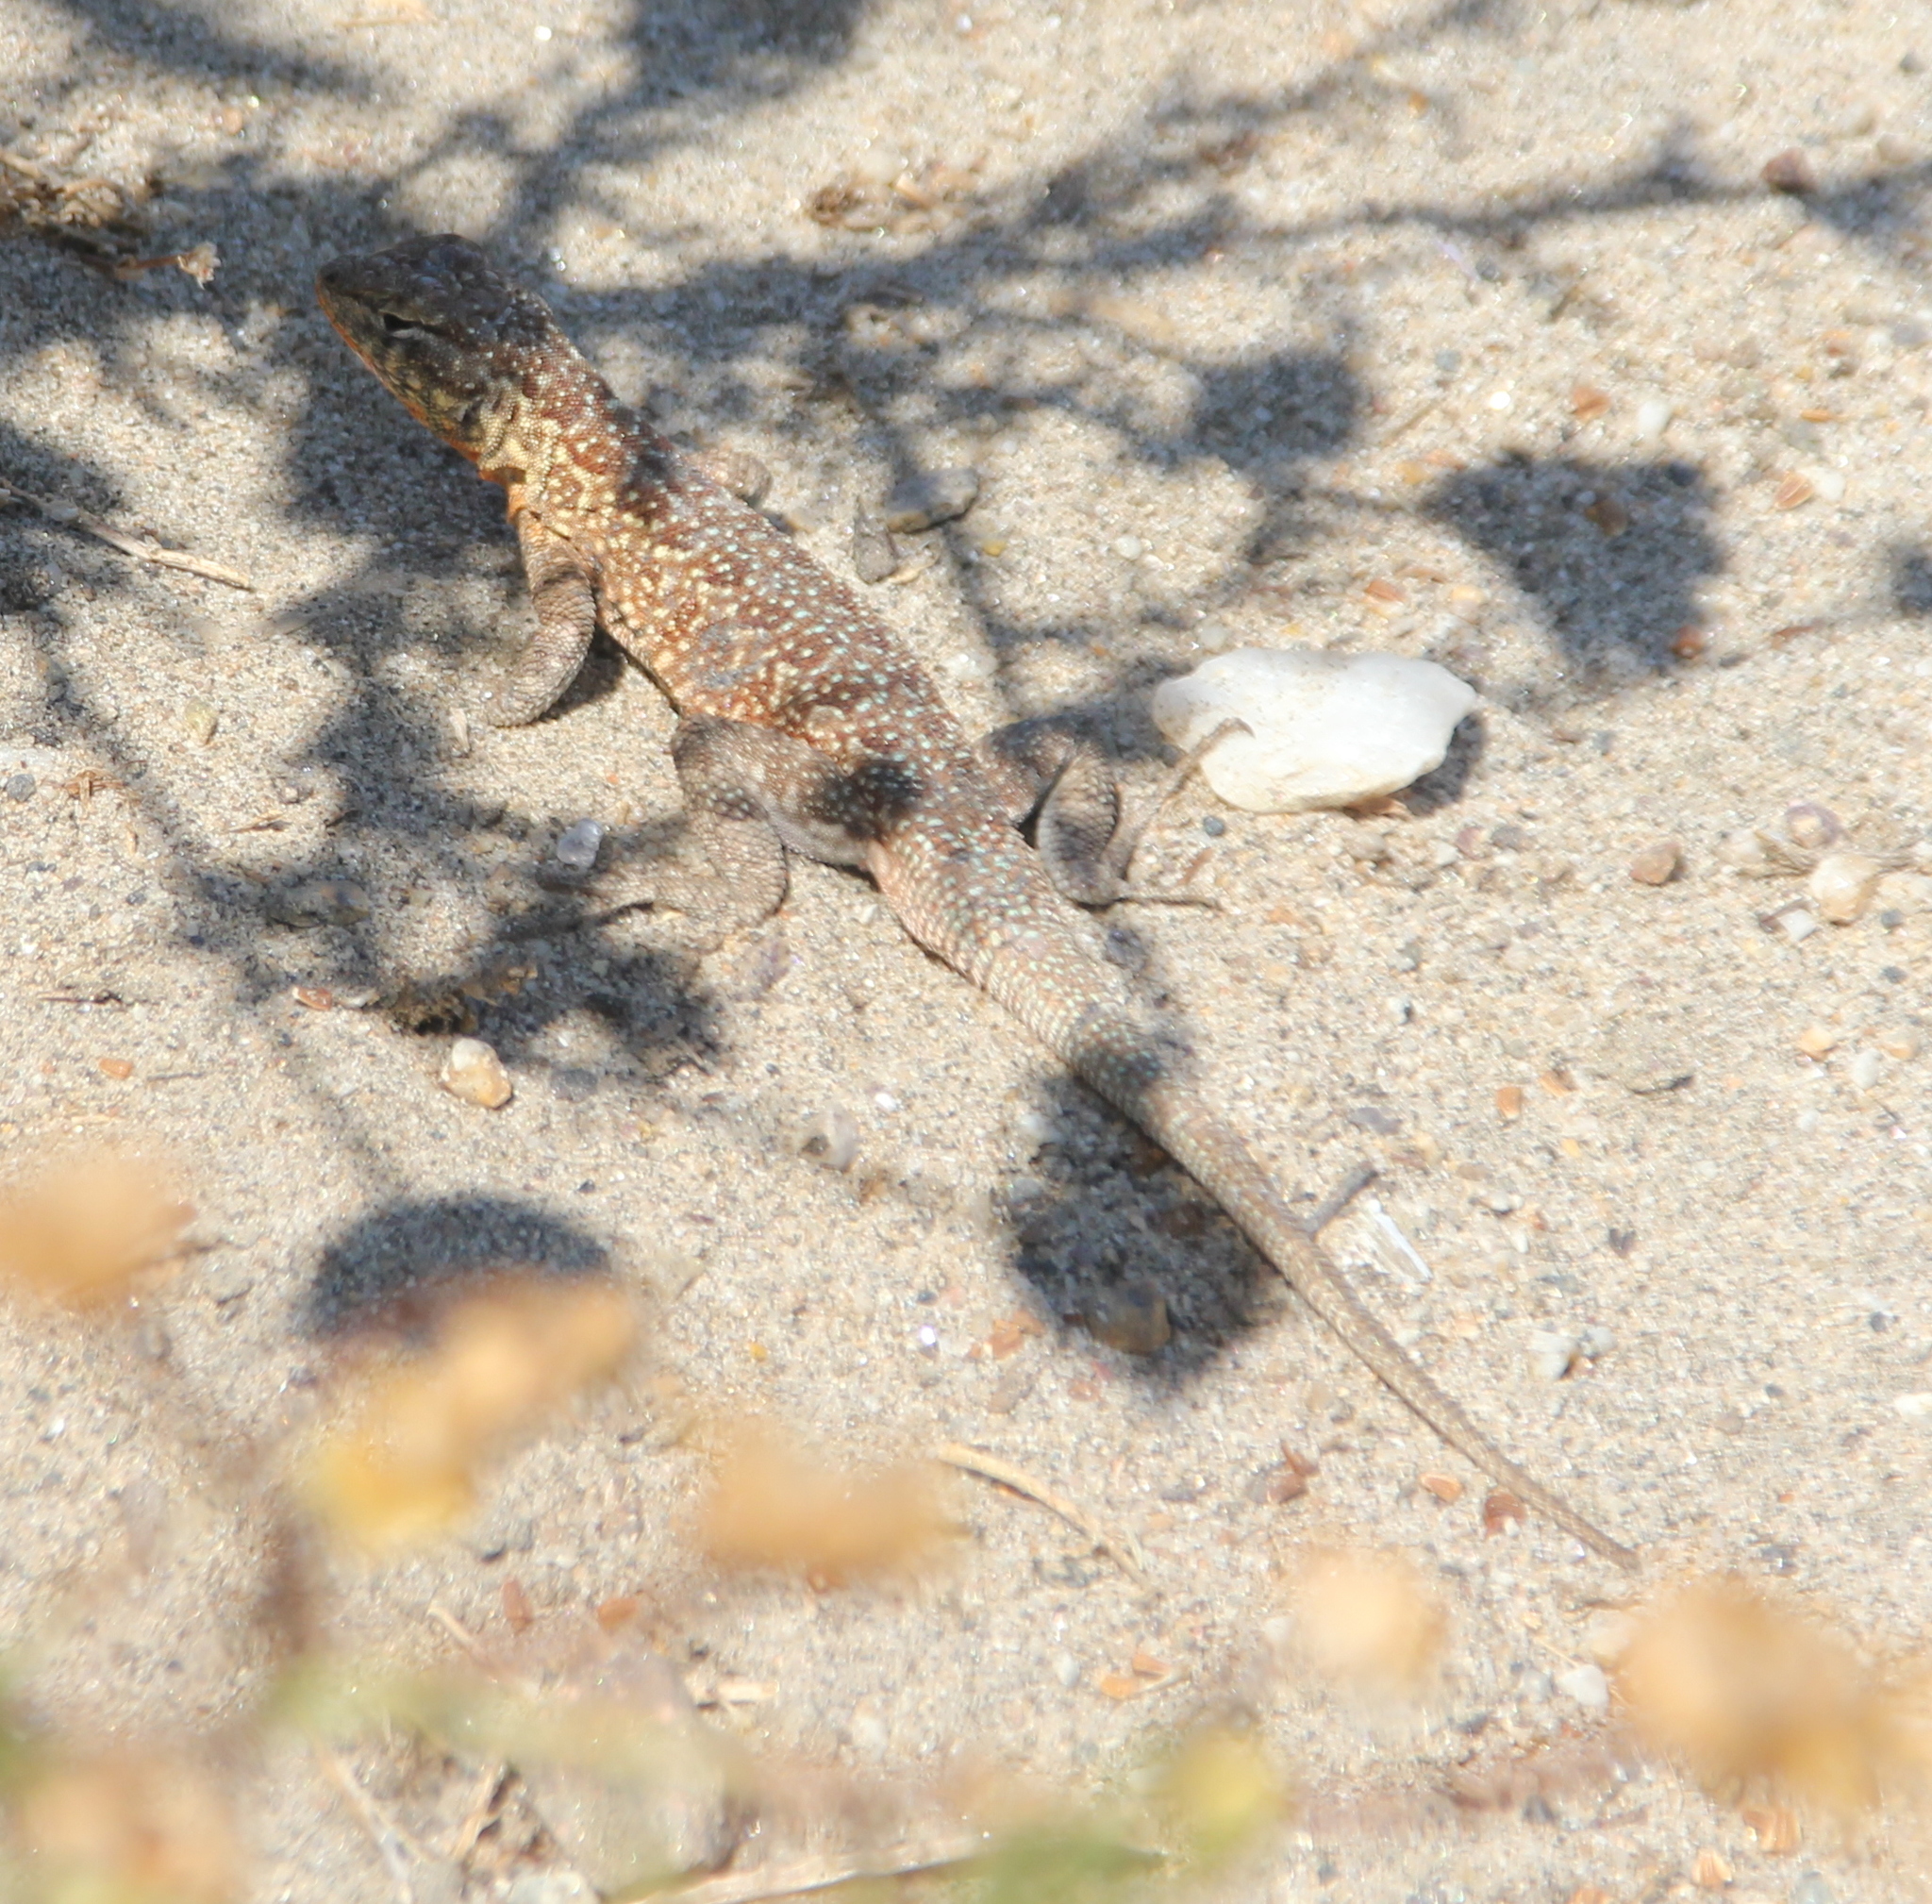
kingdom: Animalia
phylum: Chordata
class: Squamata
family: Phrynosomatidae
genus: Uta
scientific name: Uta stansburiana
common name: Side-blotched lizard
